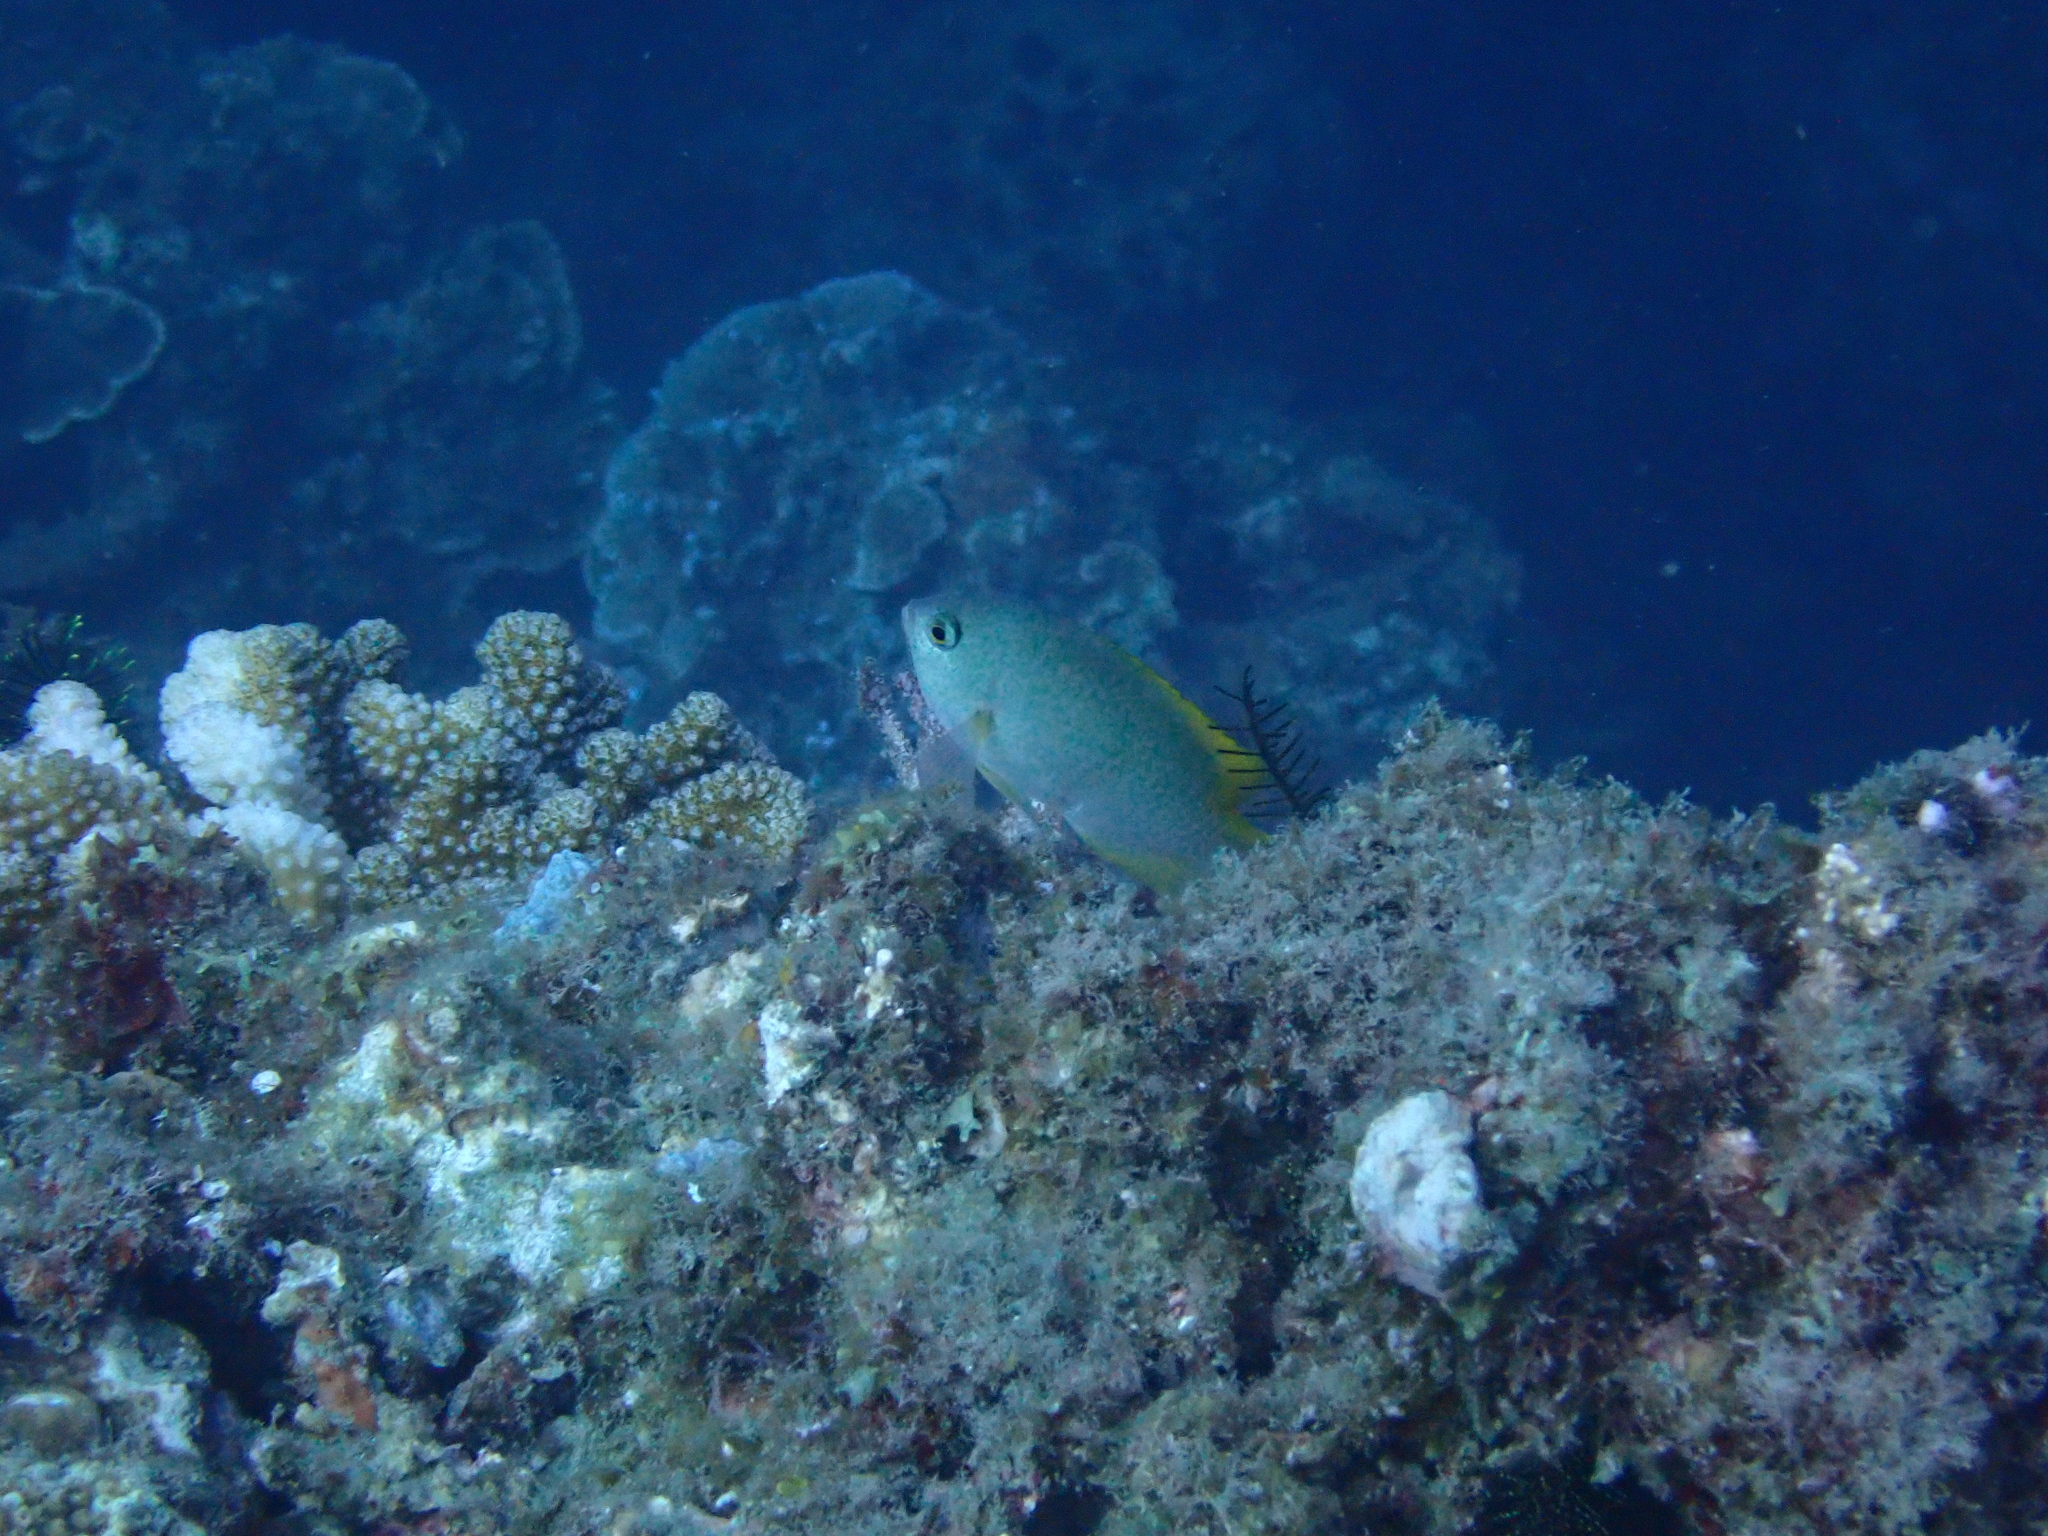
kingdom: Animalia
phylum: Chordata
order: Perciformes
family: Pomacentridae
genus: Pomacentrus
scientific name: Pomacentrus lepidogenys
